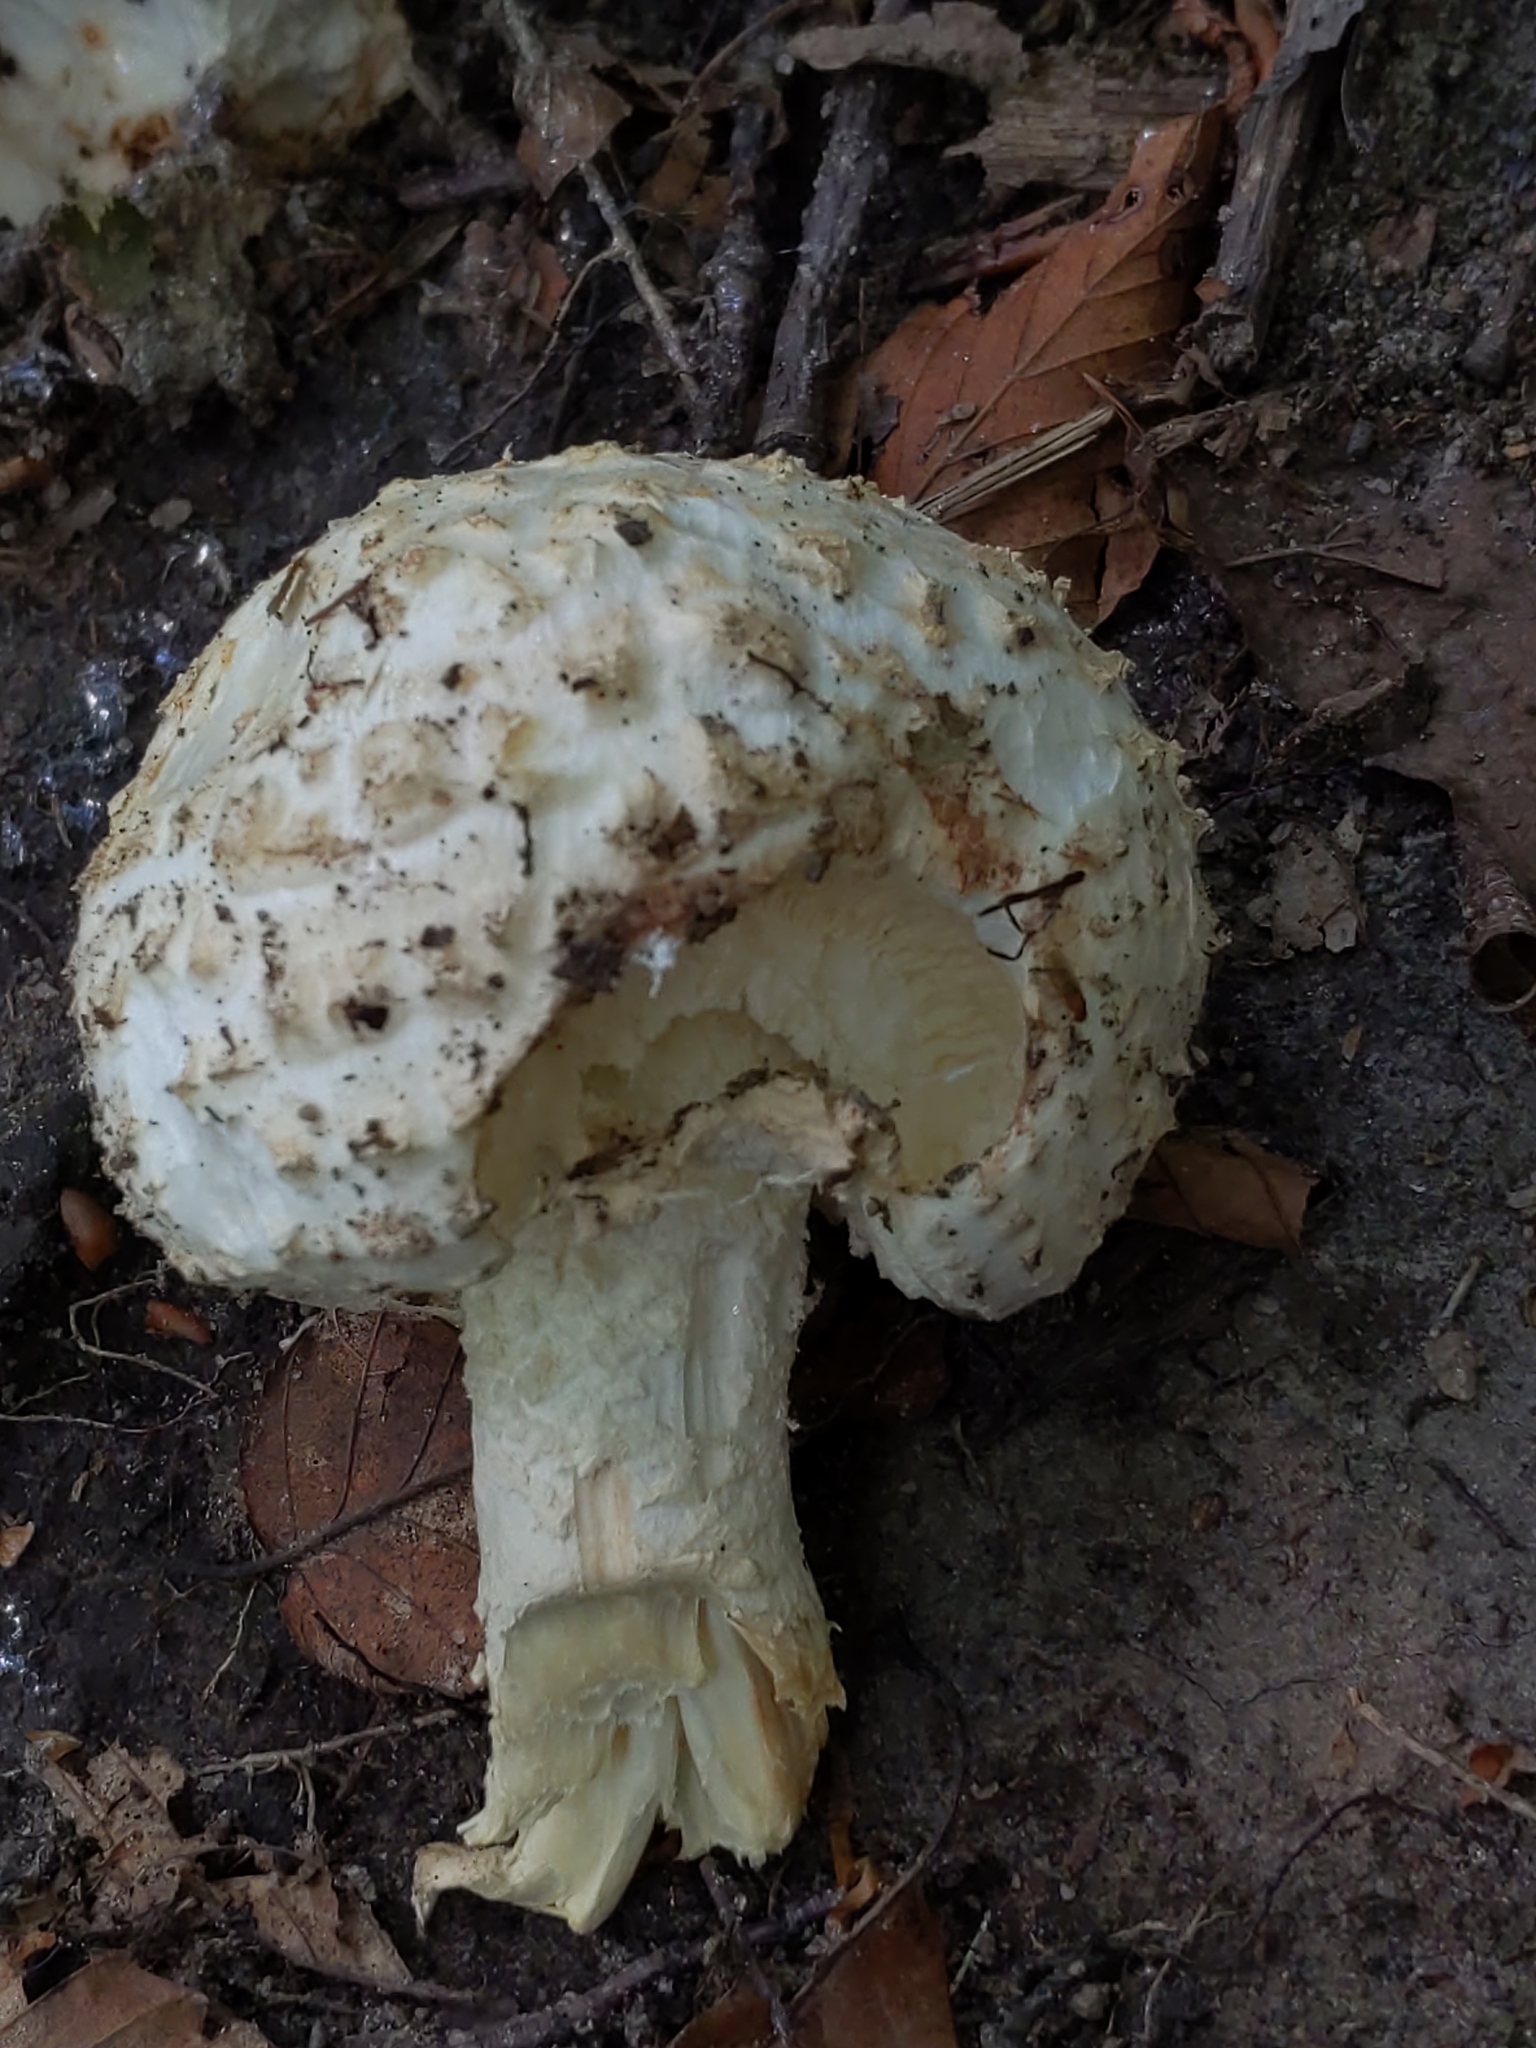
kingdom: Fungi
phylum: Basidiomycota
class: Agaricomycetes
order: Agaricales
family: Amanitaceae
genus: Amanita
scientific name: Amanita
